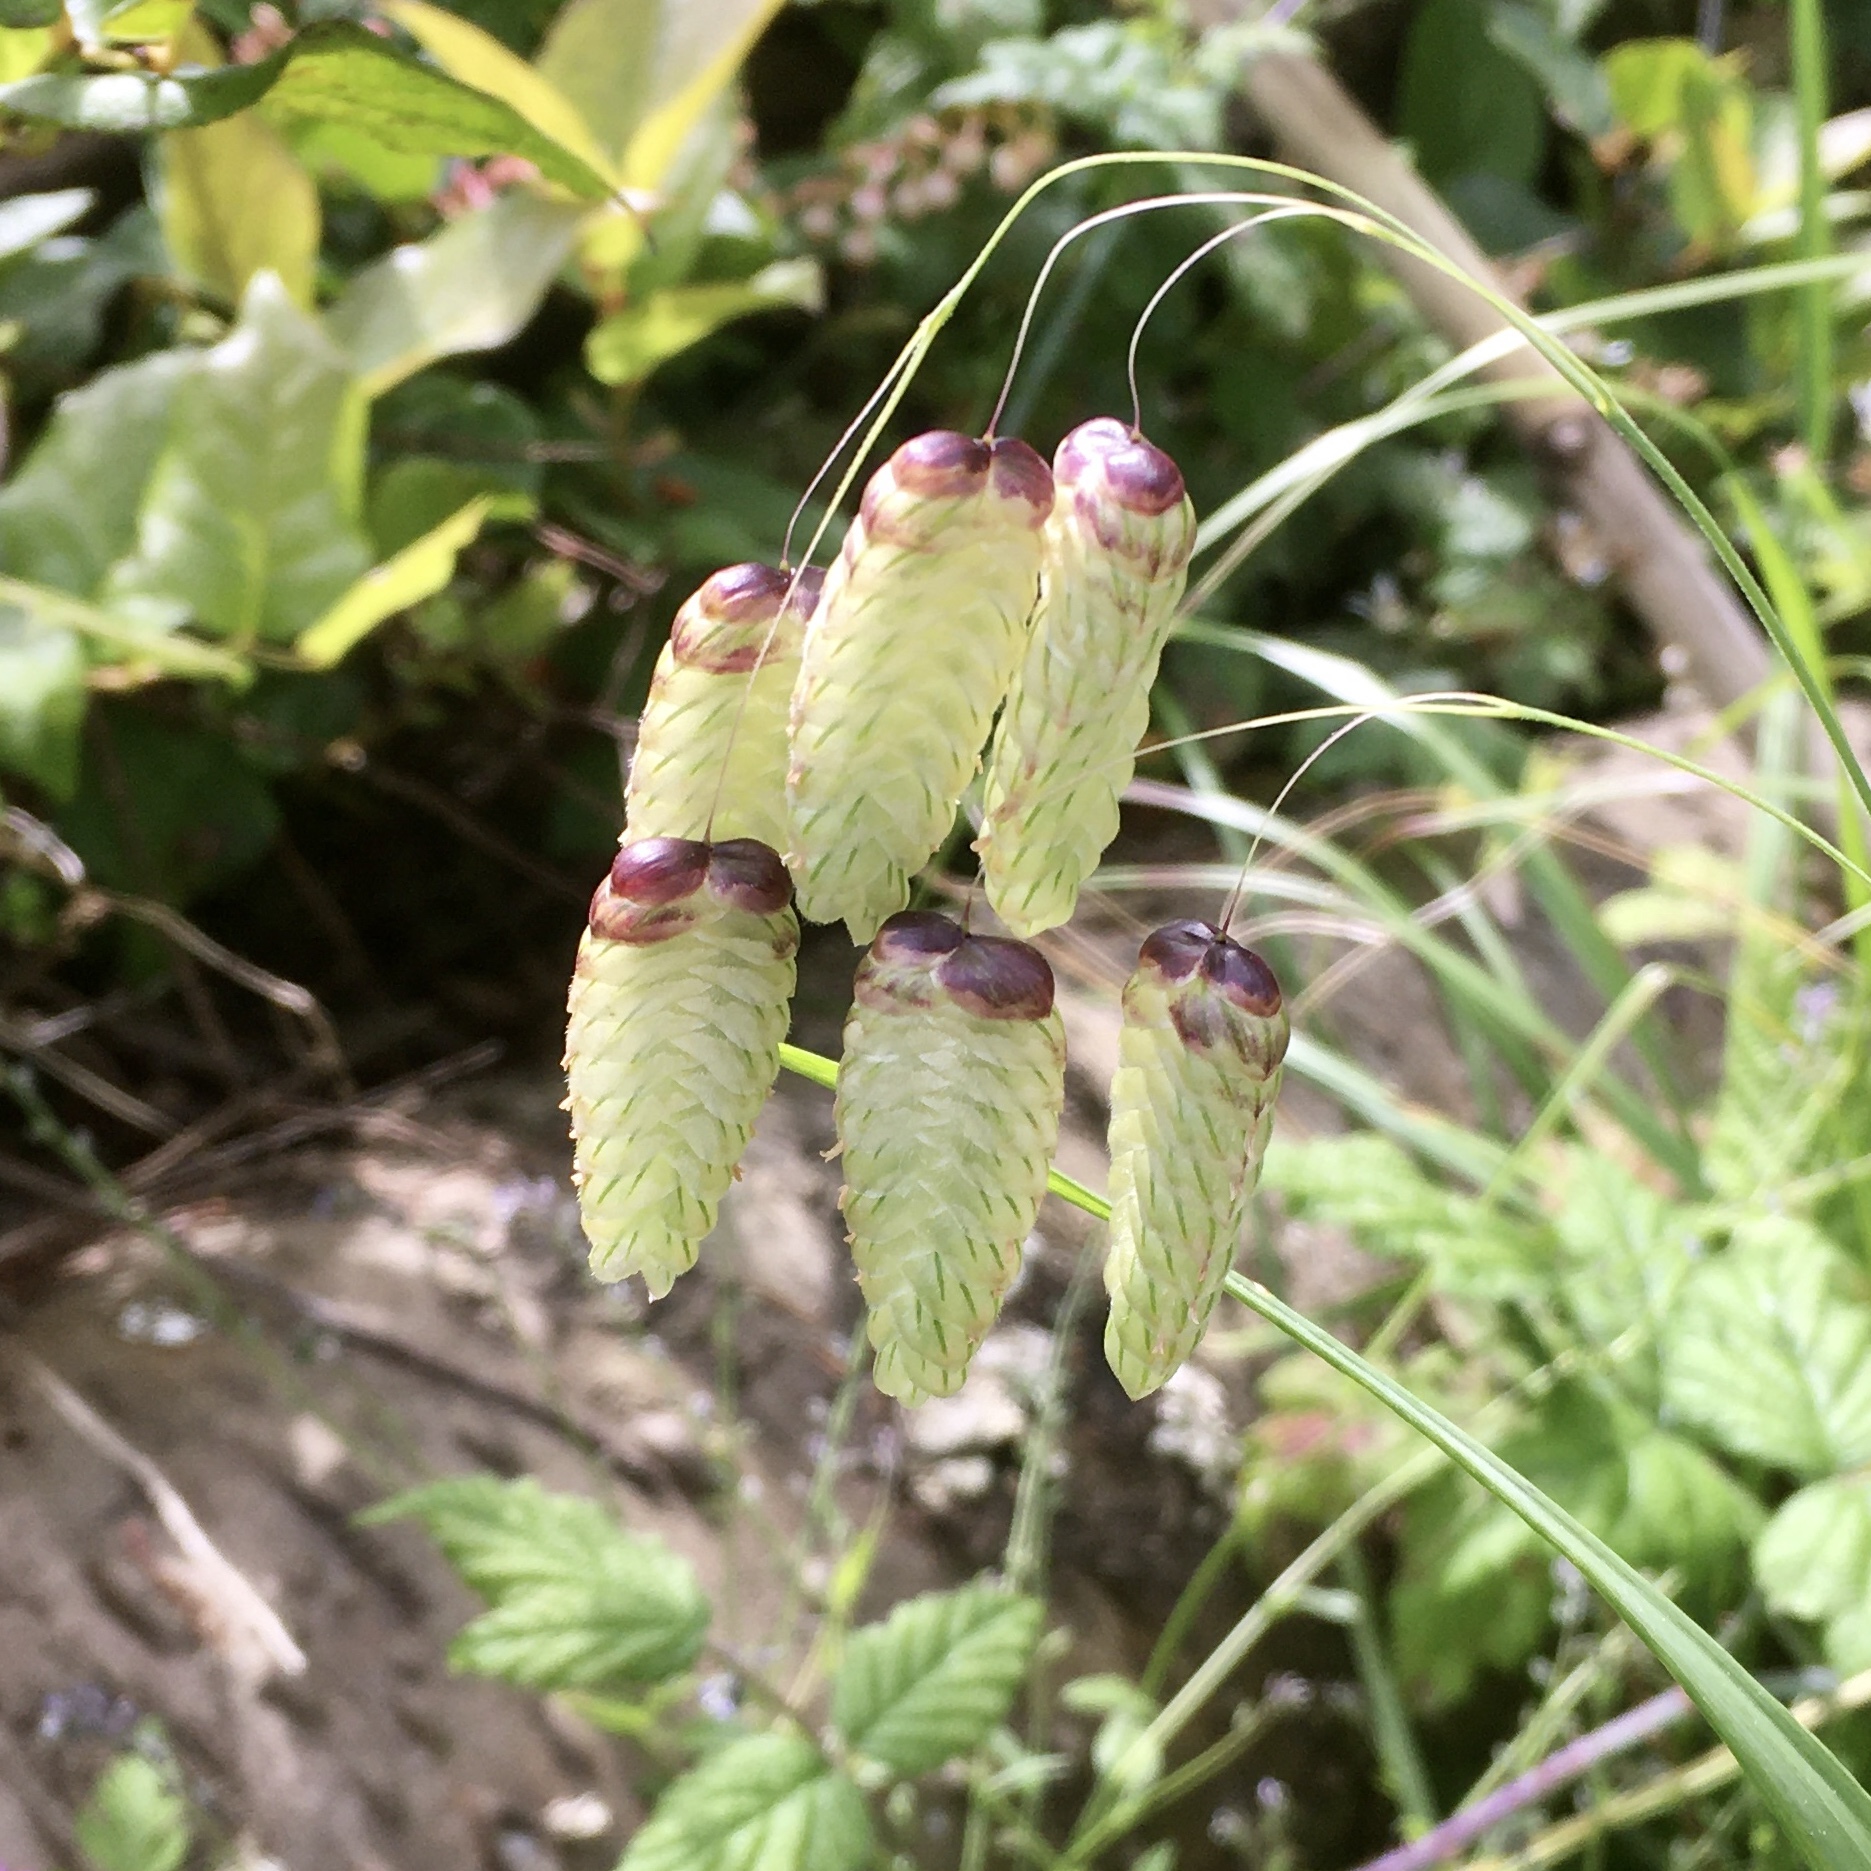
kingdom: Plantae
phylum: Tracheophyta
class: Liliopsida
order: Poales
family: Poaceae
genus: Briza
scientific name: Briza maxima
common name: Big quakinggrass
